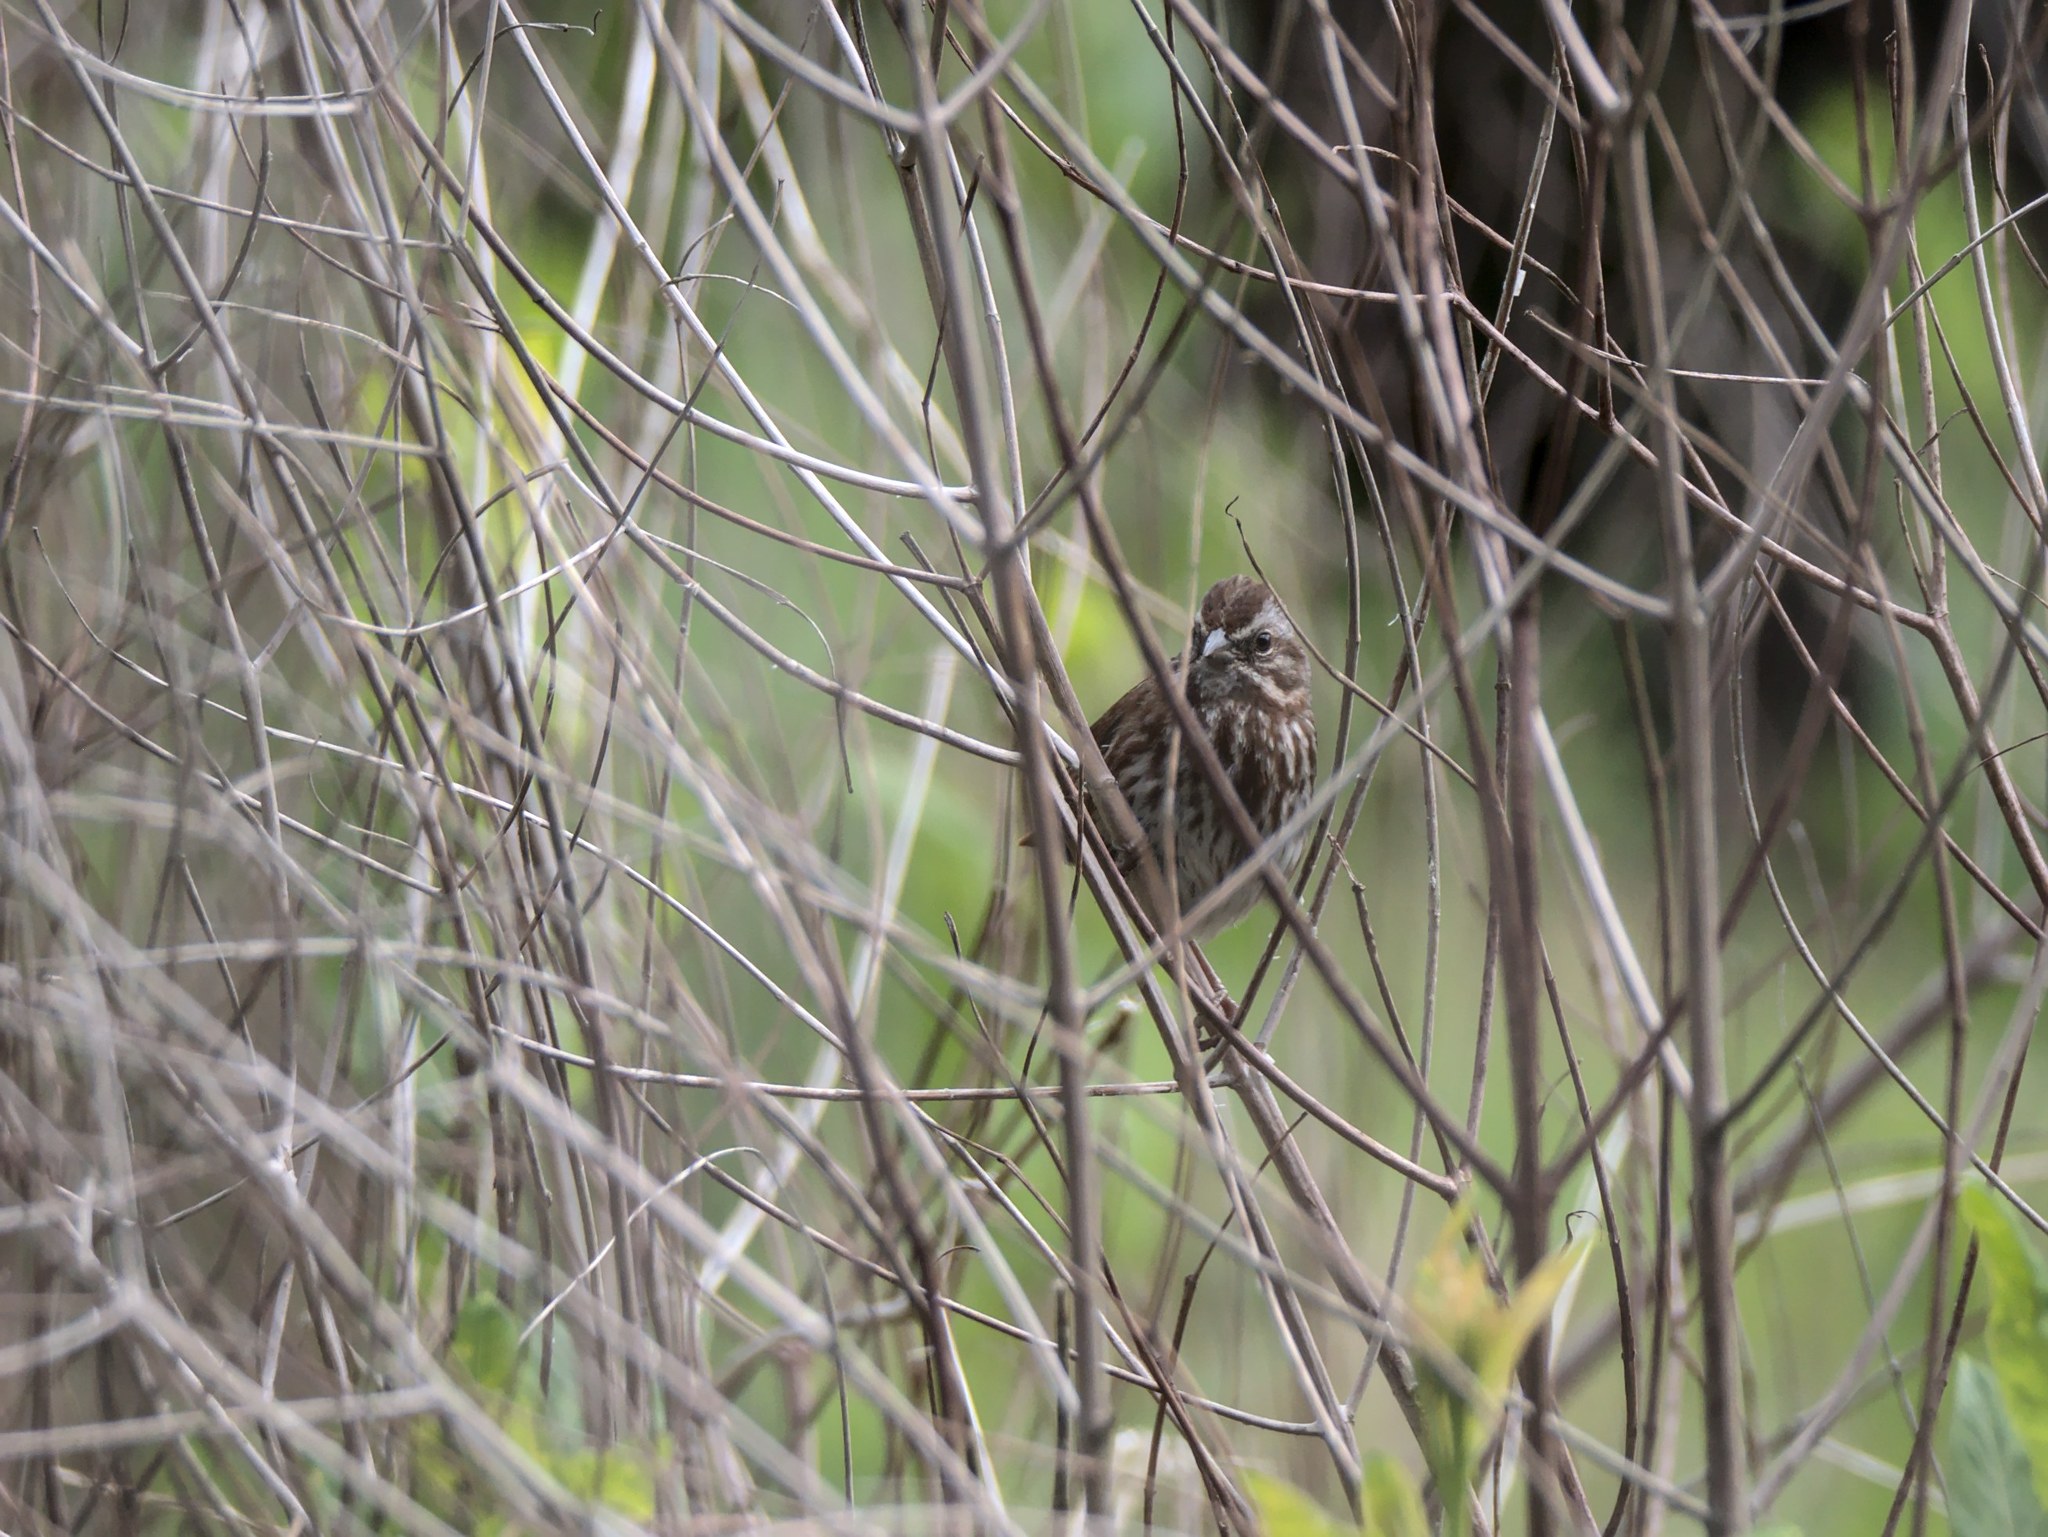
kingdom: Animalia
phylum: Chordata
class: Aves
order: Passeriformes
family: Passerellidae
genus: Melospiza
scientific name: Melospiza melodia
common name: Song sparrow
